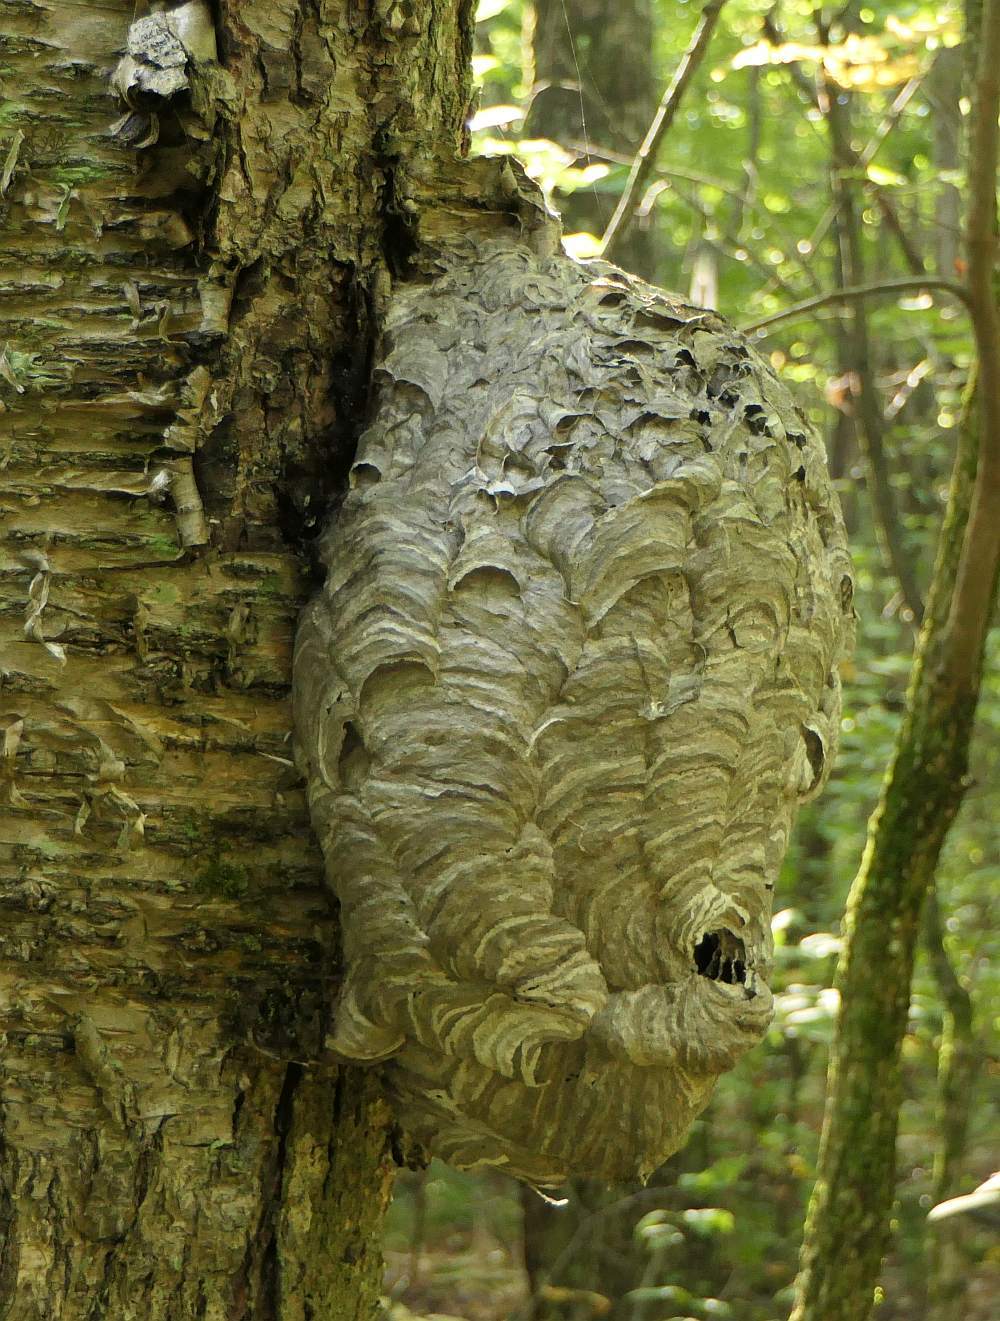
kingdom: Animalia
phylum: Arthropoda
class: Insecta
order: Hymenoptera
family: Vespidae
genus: Dolichovespula
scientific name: Dolichovespula maculata
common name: Bald-faced hornet
